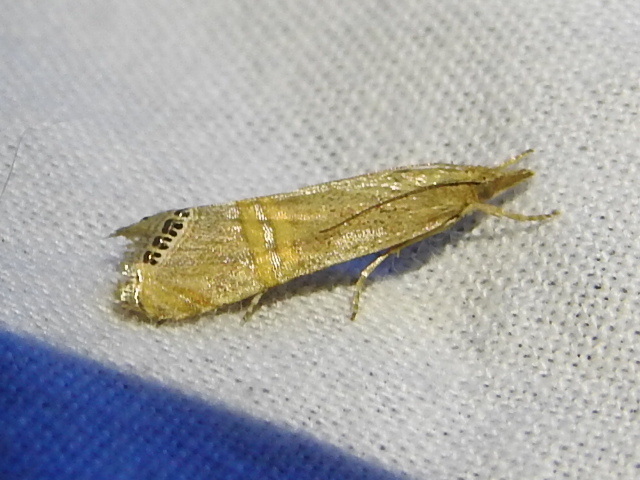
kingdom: Animalia
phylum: Arthropoda
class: Insecta
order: Lepidoptera
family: Crambidae
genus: Euchromius
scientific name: Euchromius ocellea
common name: Necklace veneer moth
